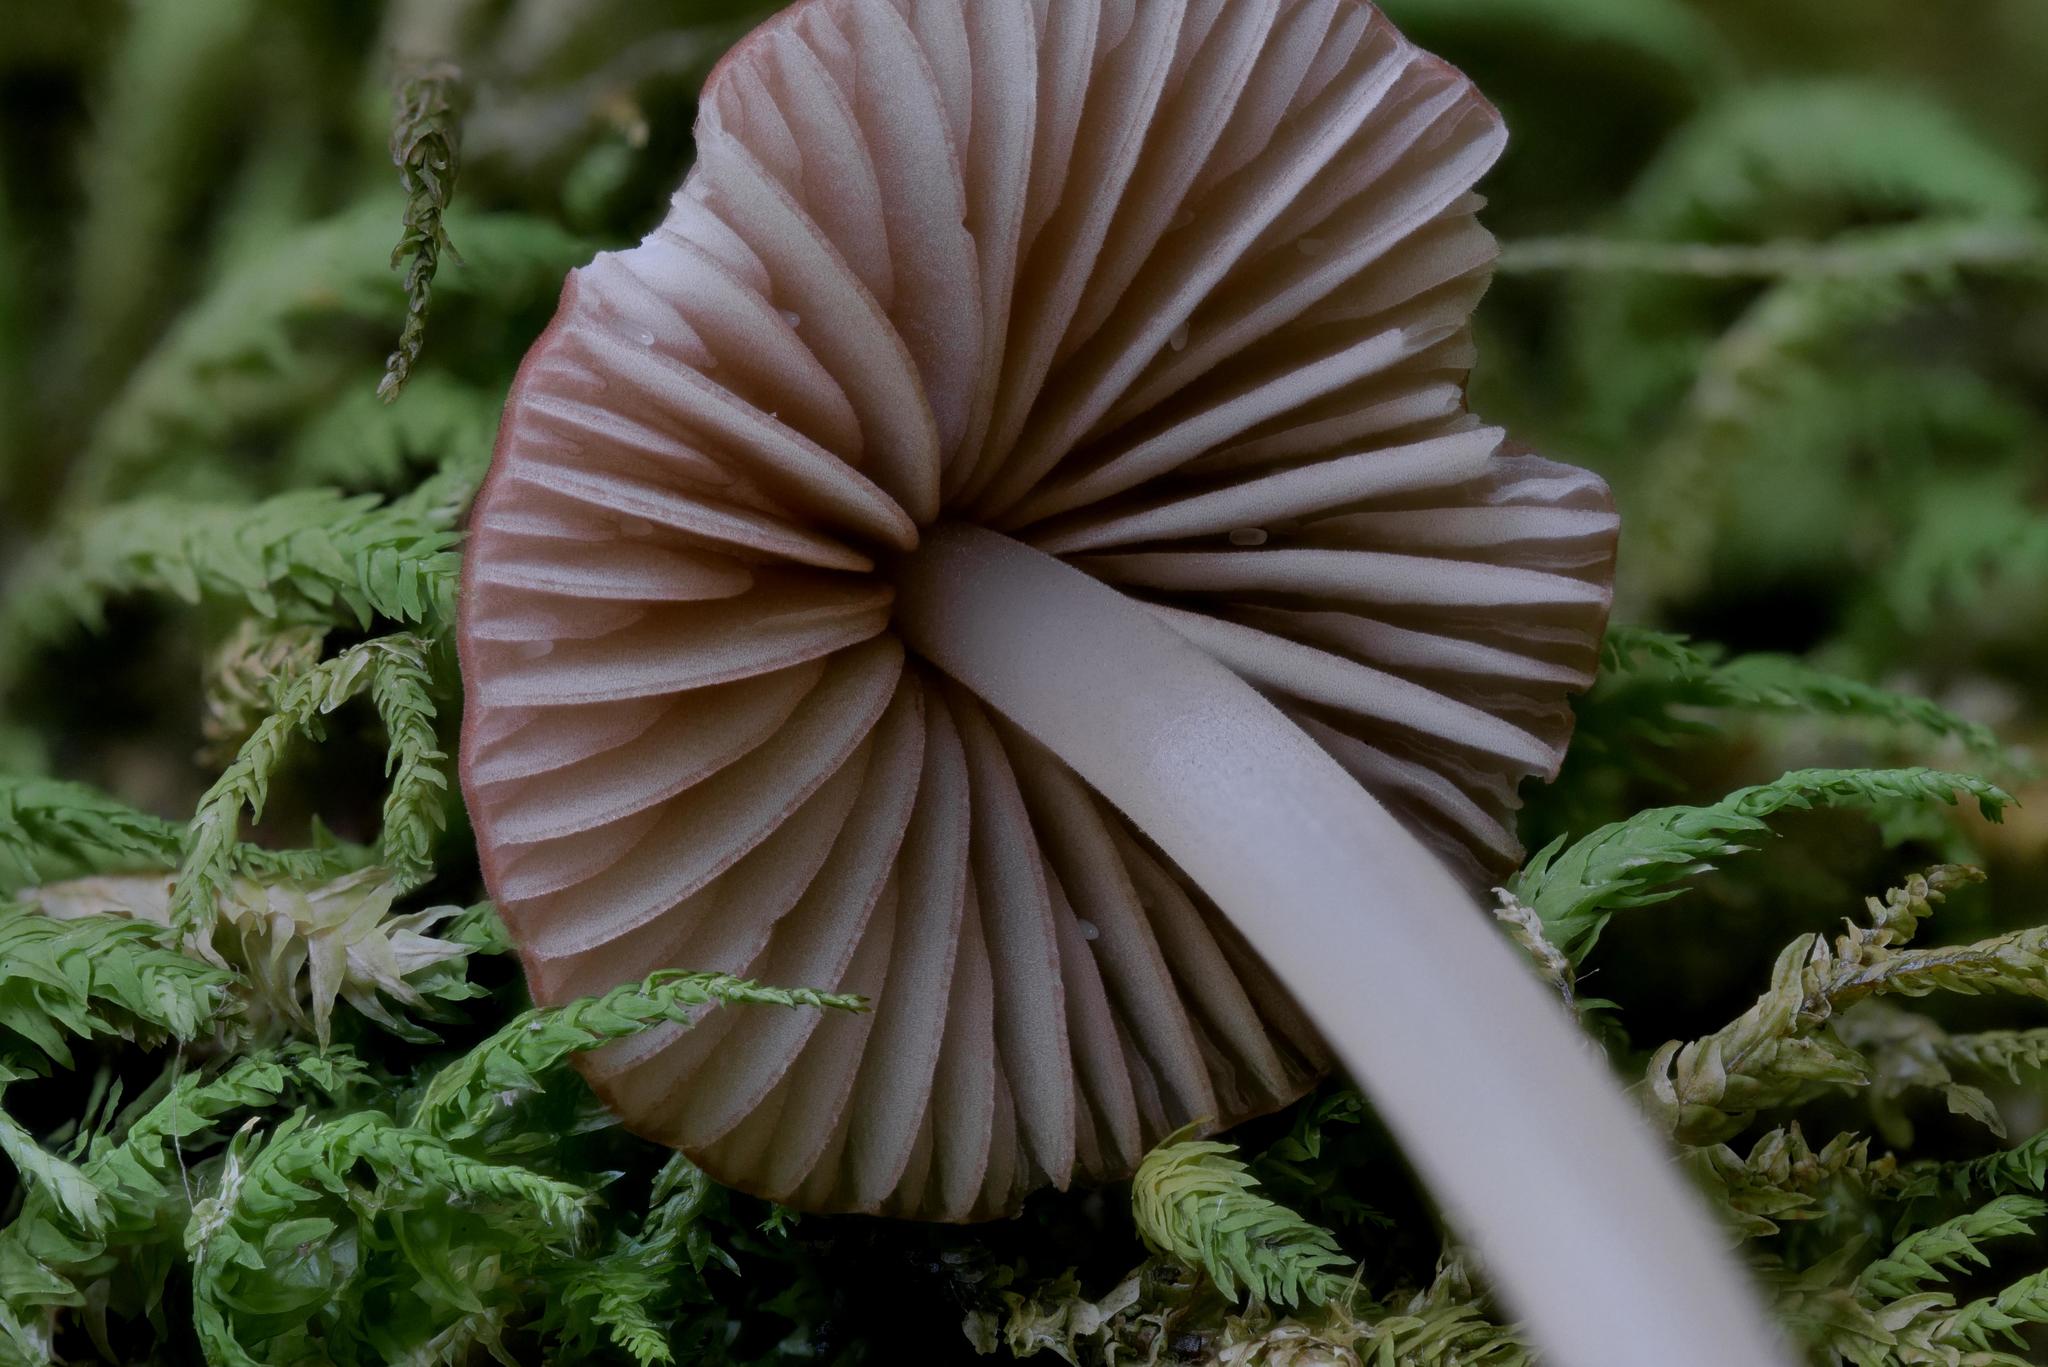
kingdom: Fungi
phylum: Basidiomycota
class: Agaricomycetes
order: Agaricales
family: Marasmiaceae
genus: Marasmius
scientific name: Marasmius cohaerens
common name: Bristled parachute
